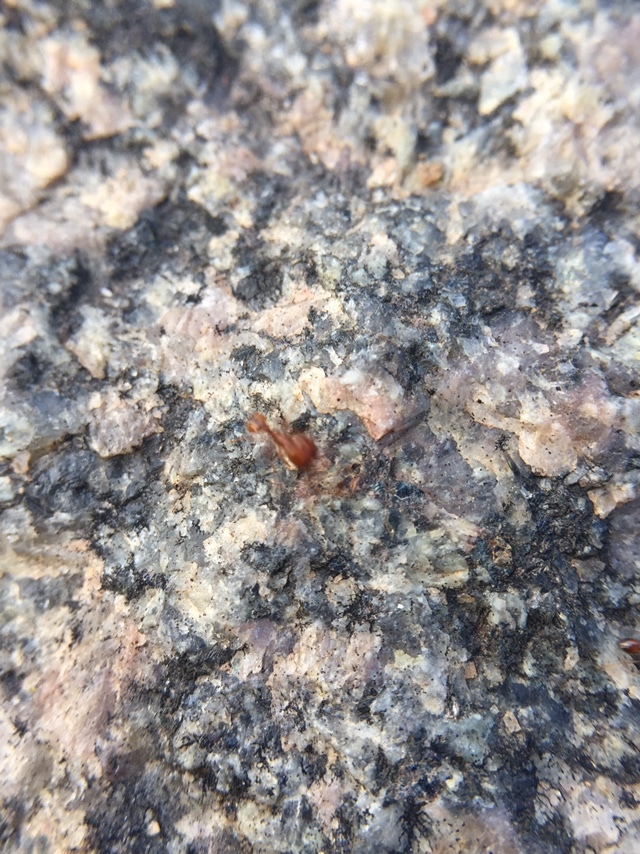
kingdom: Animalia
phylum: Arthropoda
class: Insecta
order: Hymenoptera
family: Formicidae
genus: Solenopsis
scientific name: Solenopsis geminata
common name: Tropical fire ant
